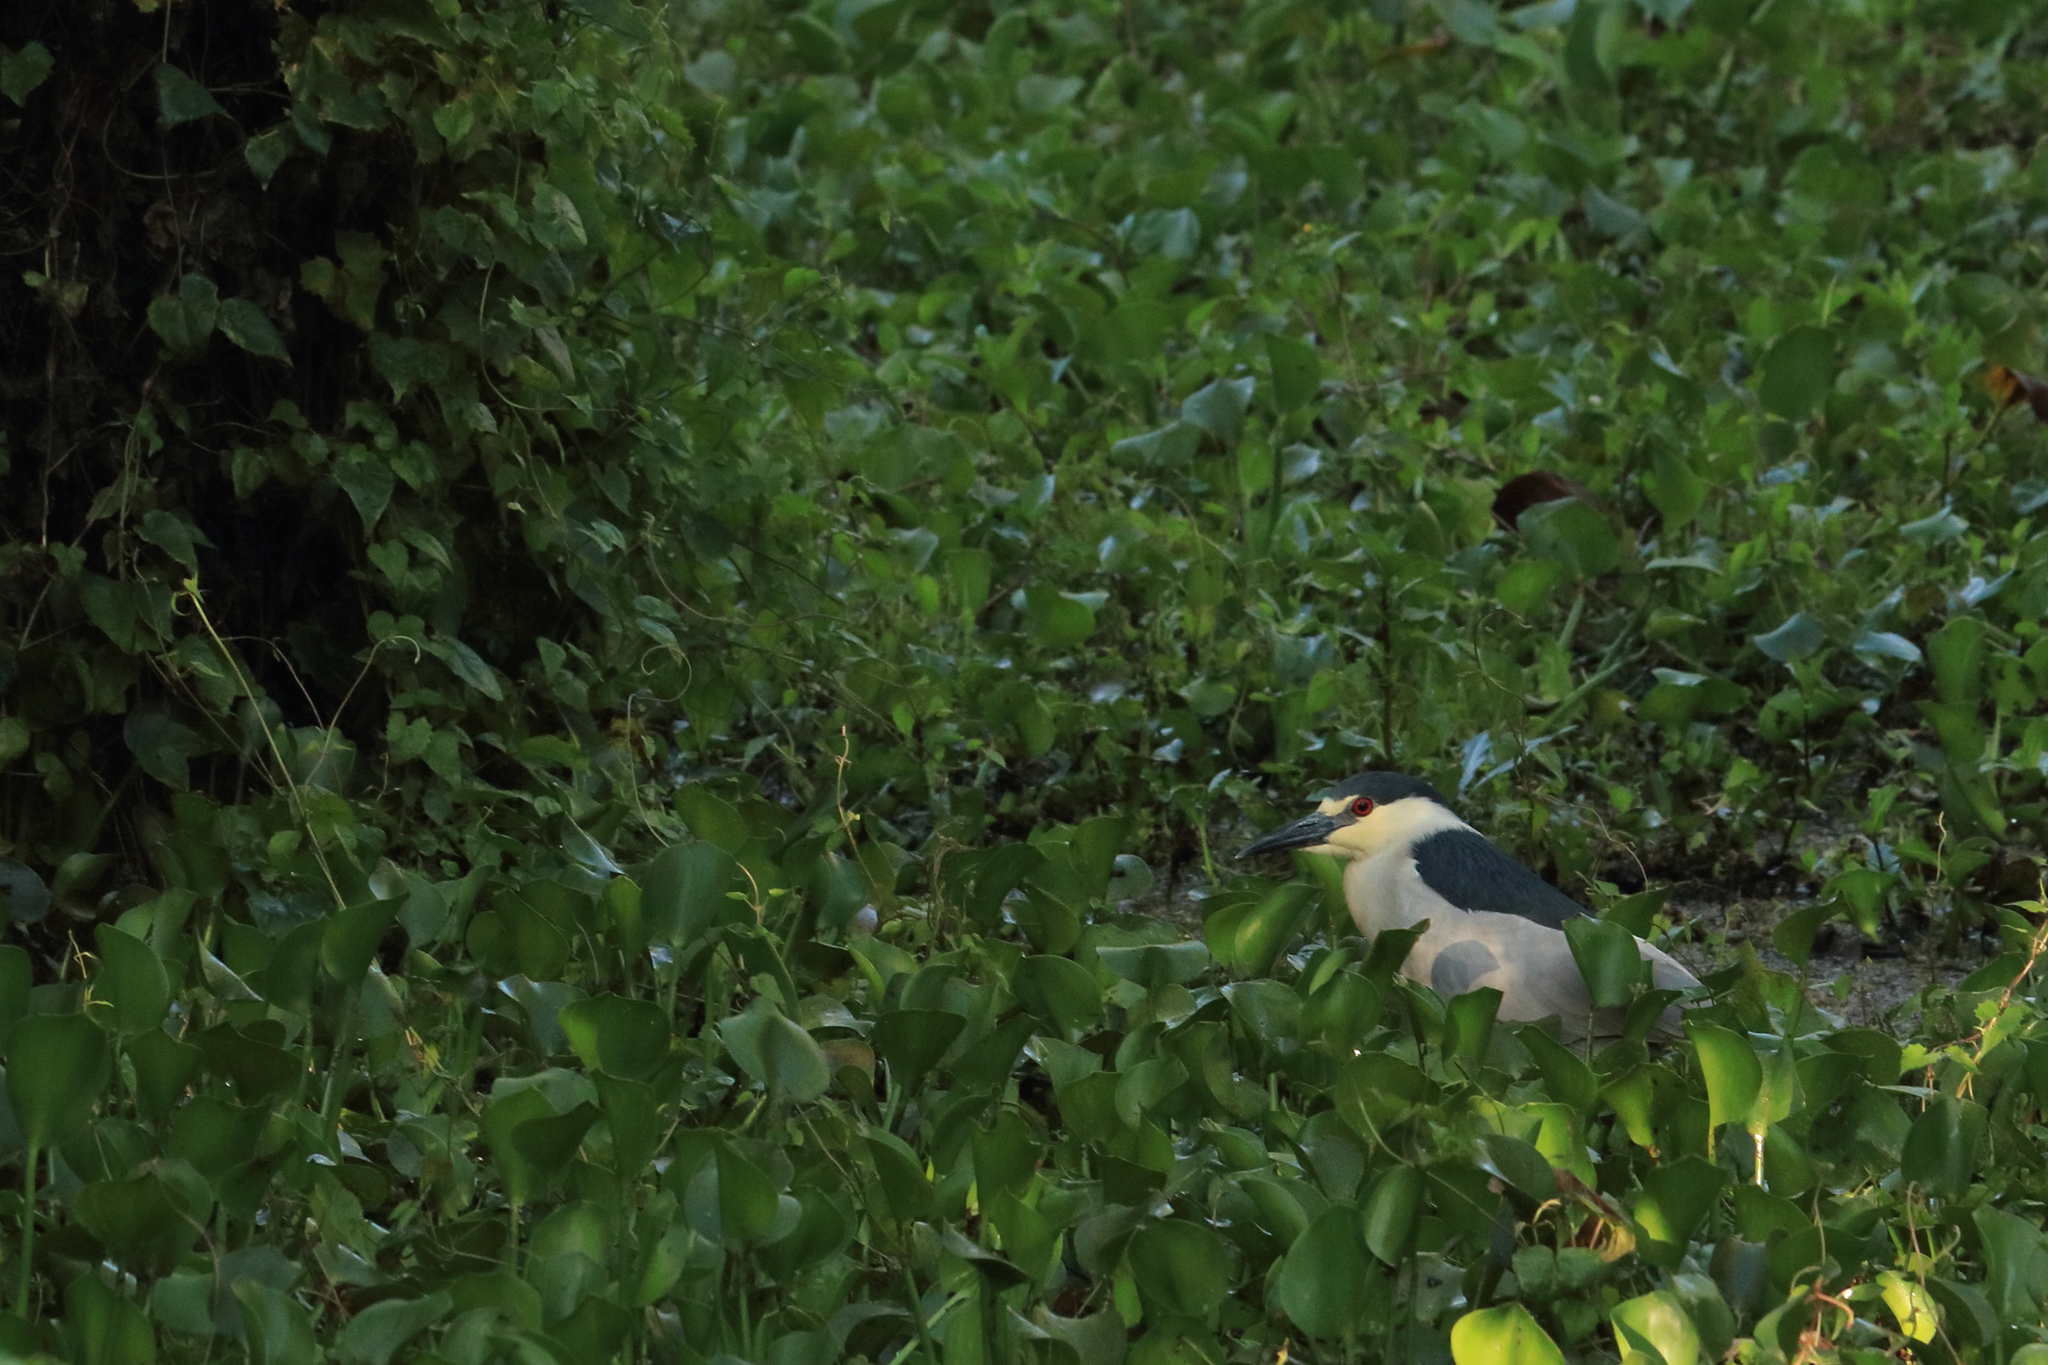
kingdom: Animalia
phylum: Chordata
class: Aves
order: Pelecaniformes
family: Ardeidae
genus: Nycticorax
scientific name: Nycticorax nycticorax
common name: Black-crowned night heron
